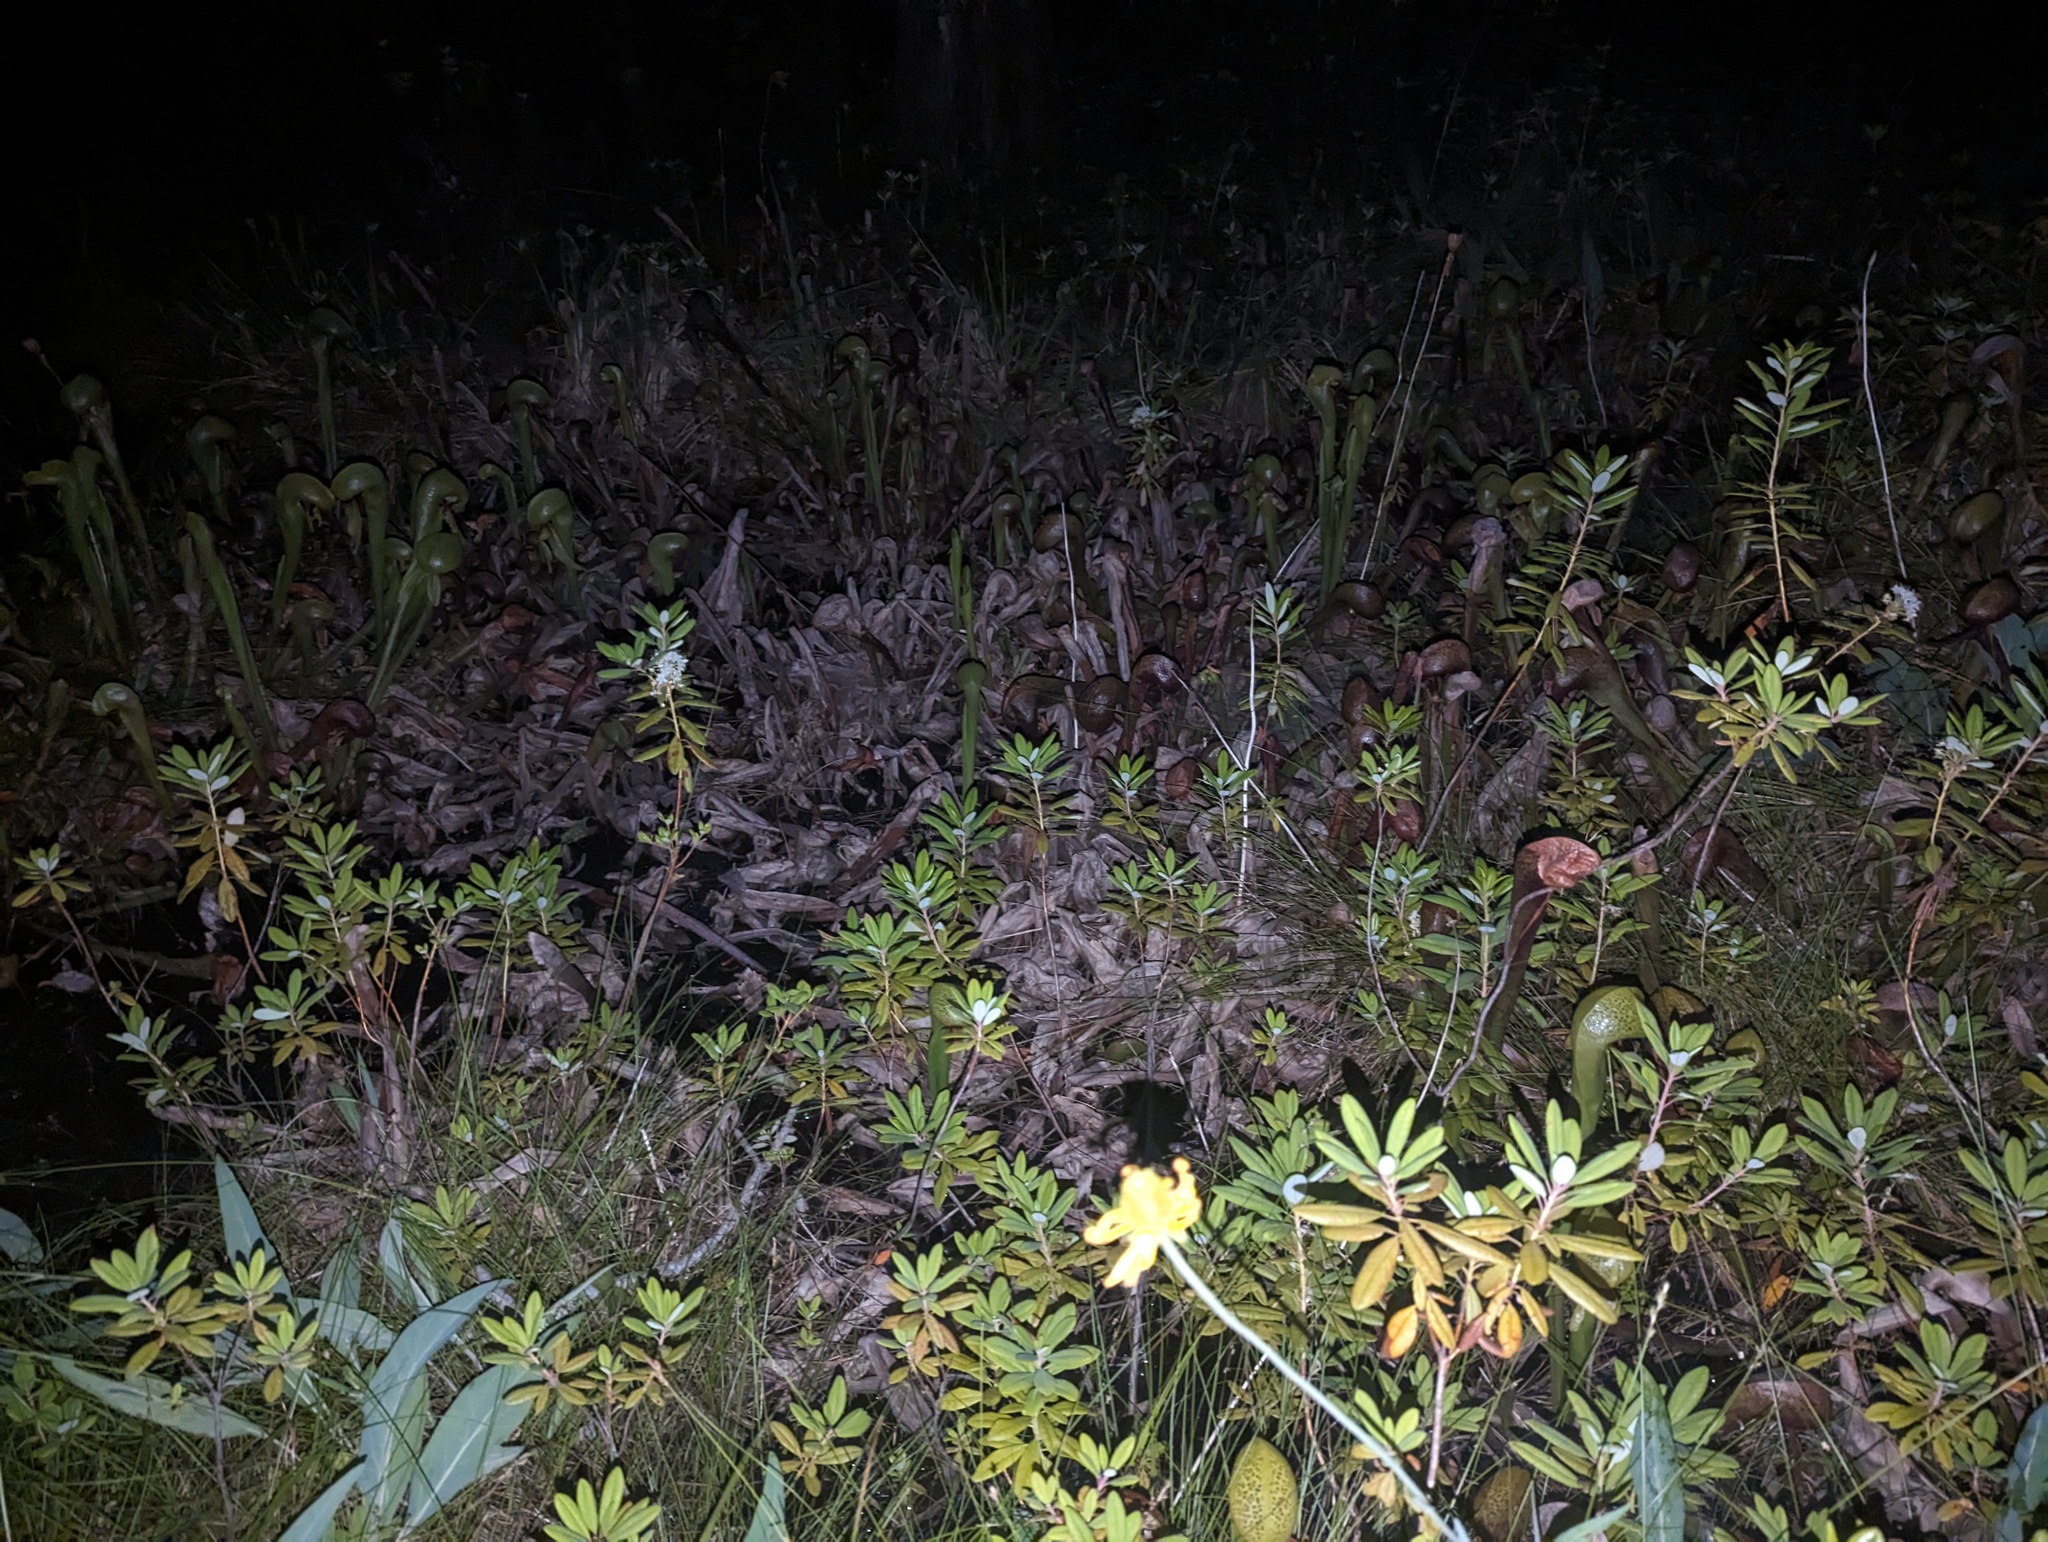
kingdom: Plantae
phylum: Tracheophyta
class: Magnoliopsida
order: Ericales
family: Sarraceniaceae
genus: Darlingtonia
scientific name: Darlingtonia californica
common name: California pitcher plant
